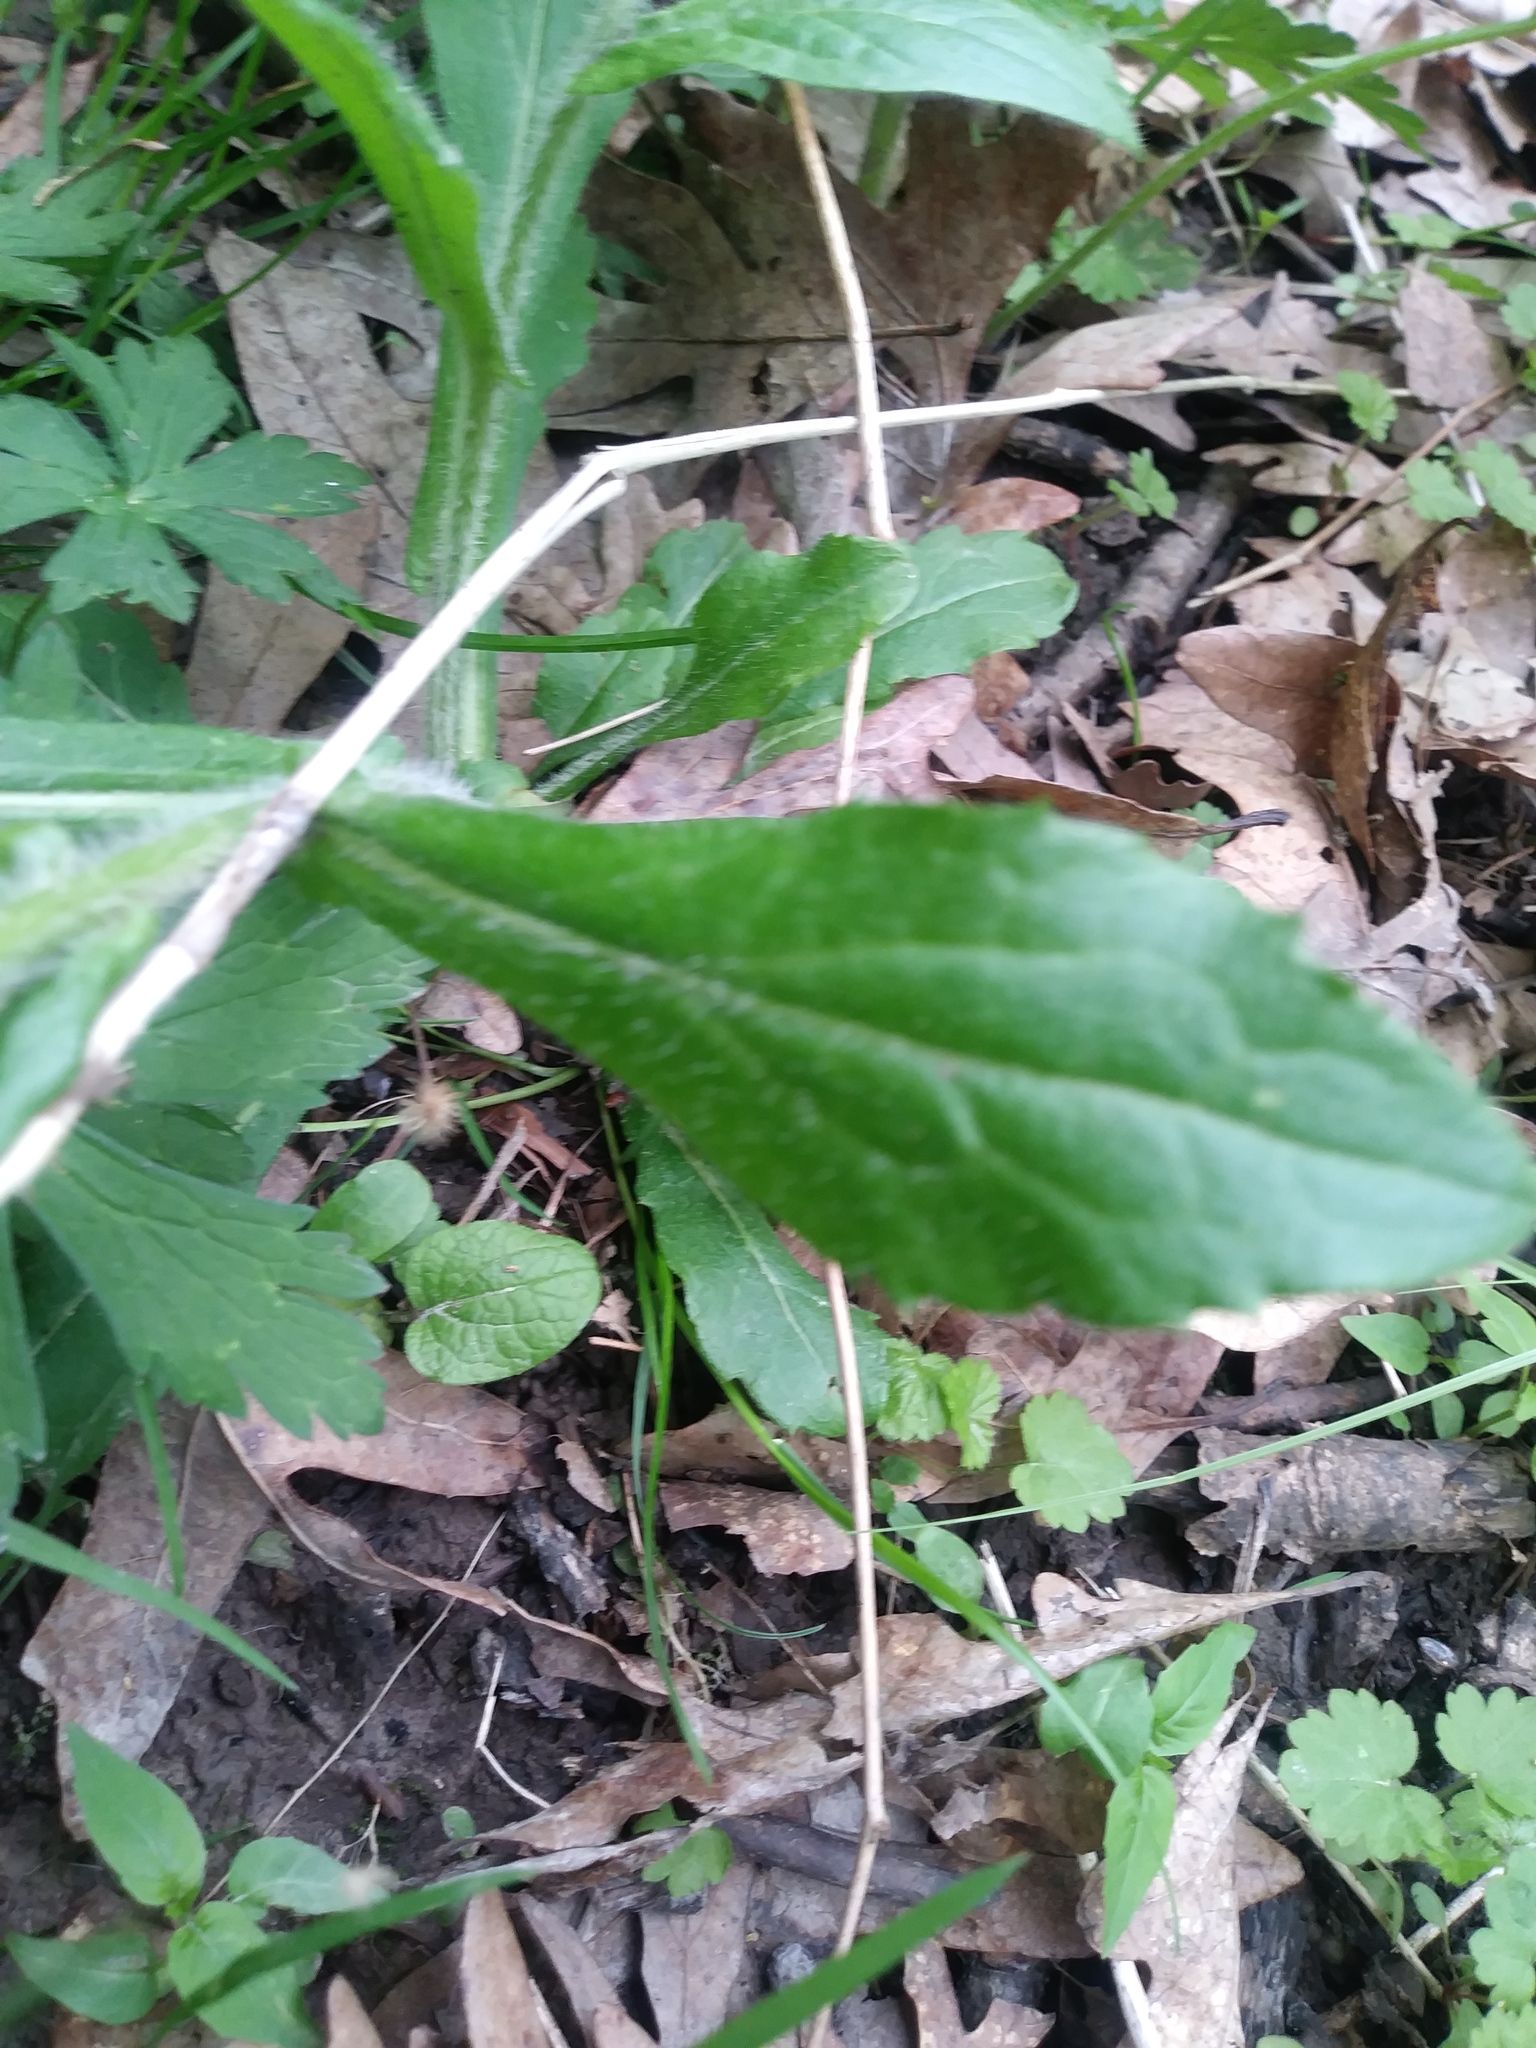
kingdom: Plantae
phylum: Tracheophyta
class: Magnoliopsida
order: Asterales
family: Asteraceae
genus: Erigeron
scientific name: Erigeron philadelphicus
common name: Robin's-plantain
